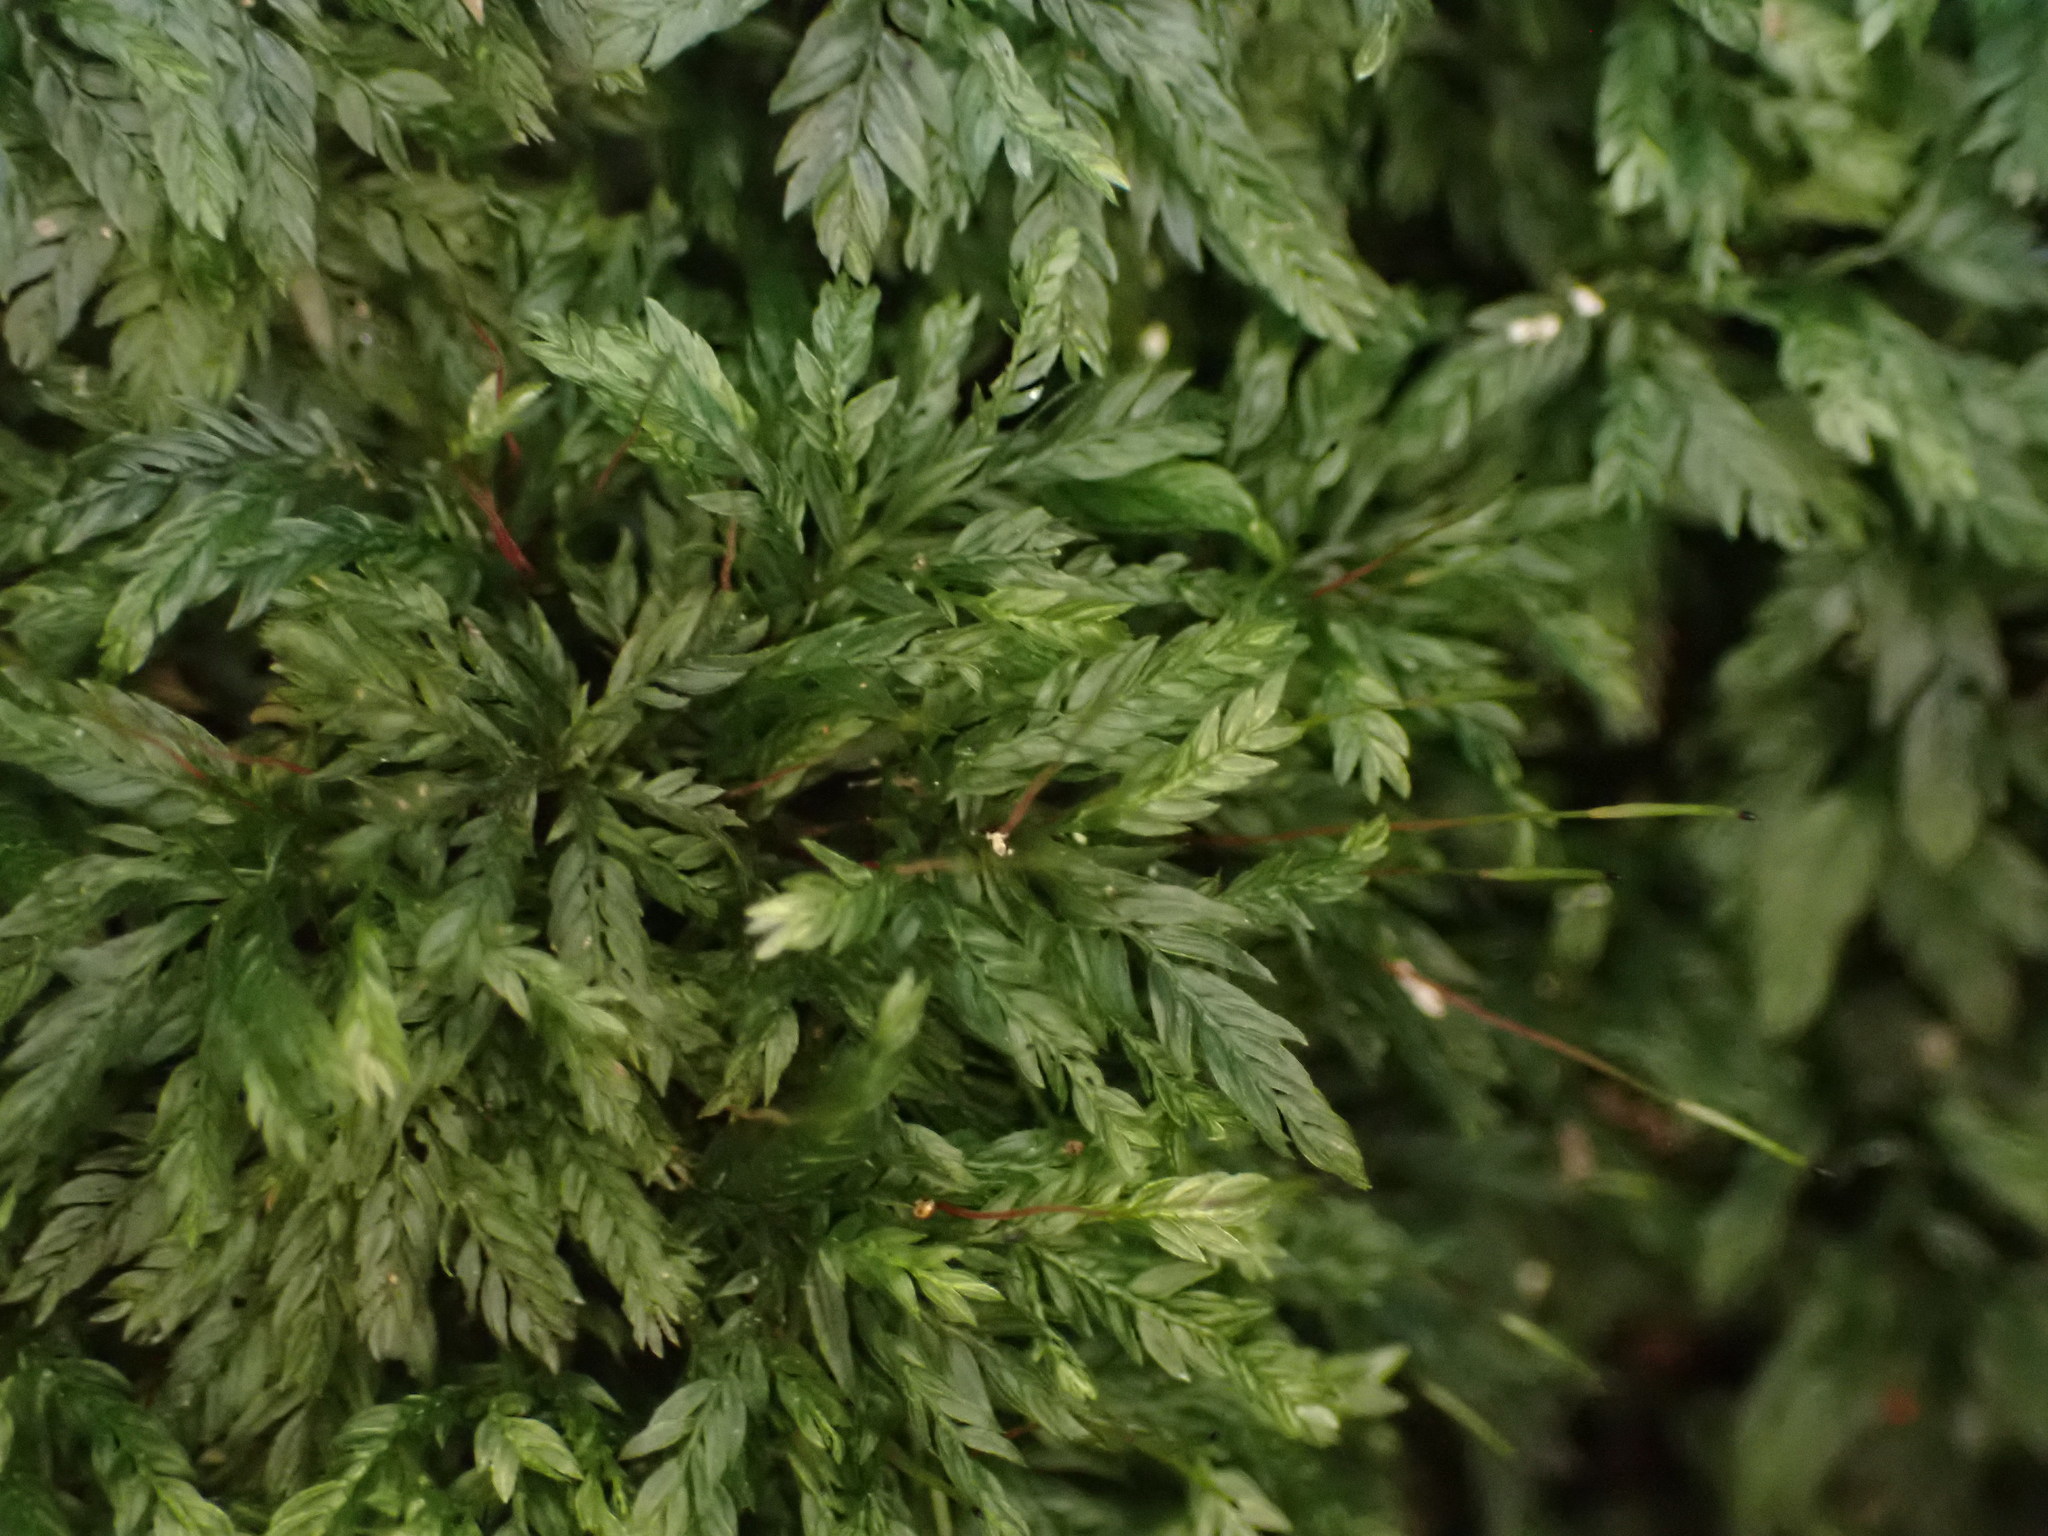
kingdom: Plantae
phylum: Bryophyta
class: Bryopsida
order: Aulacomniales
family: Aulacomniaceae
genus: Hymenodontopsis
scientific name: Hymenodontopsis bifaria
